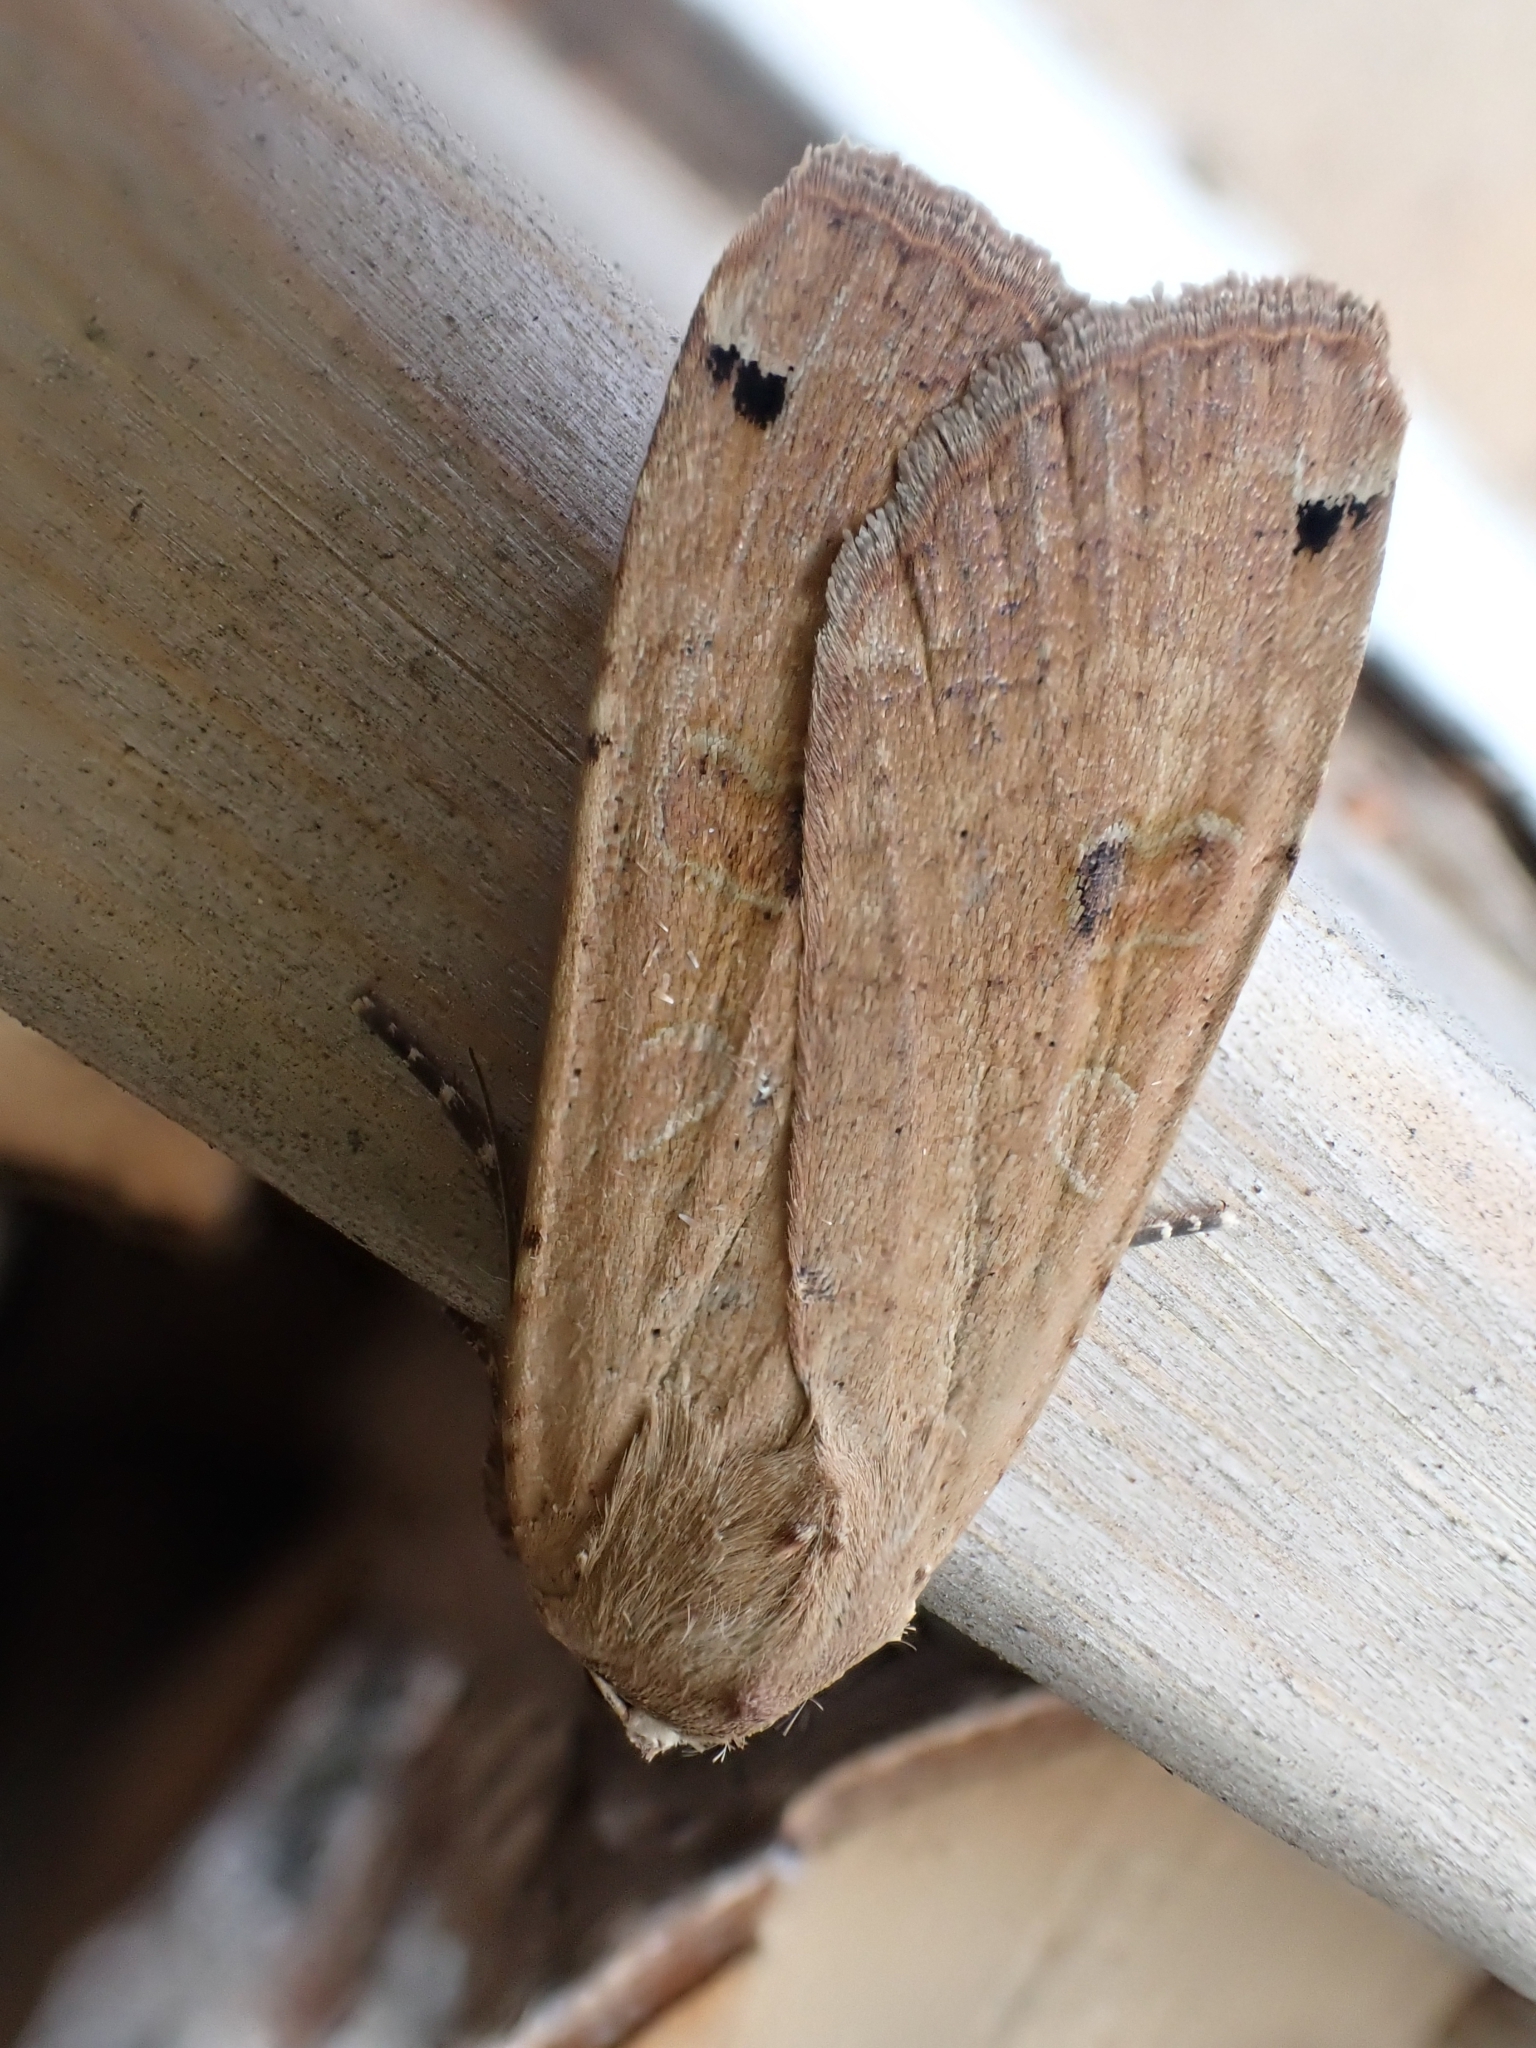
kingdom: Animalia
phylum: Arthropoda
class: Insecta
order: Lepidoptera
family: Noctuidae
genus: Noctua
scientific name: Noctua pronuba
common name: Large yellow underwing
